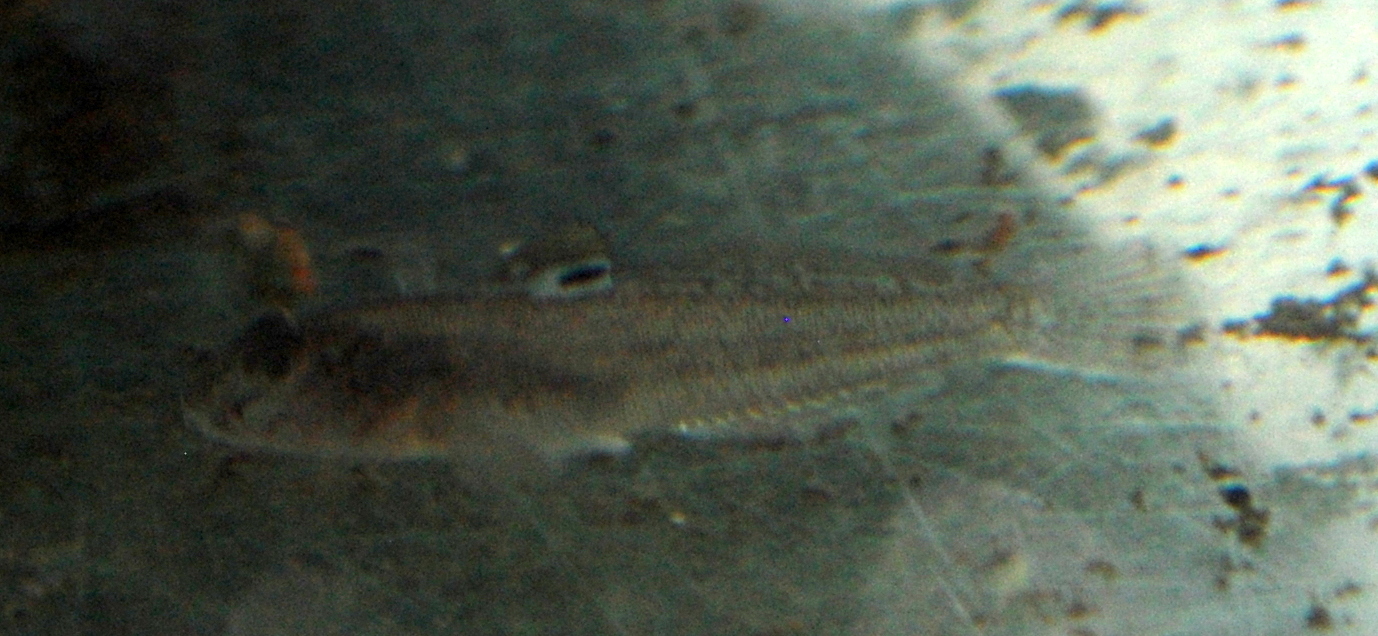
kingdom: Animalia
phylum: Chordata
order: Perciformes
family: Gobiidae
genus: Neogobius
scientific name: Neogobius melanostomus
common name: Round goby
